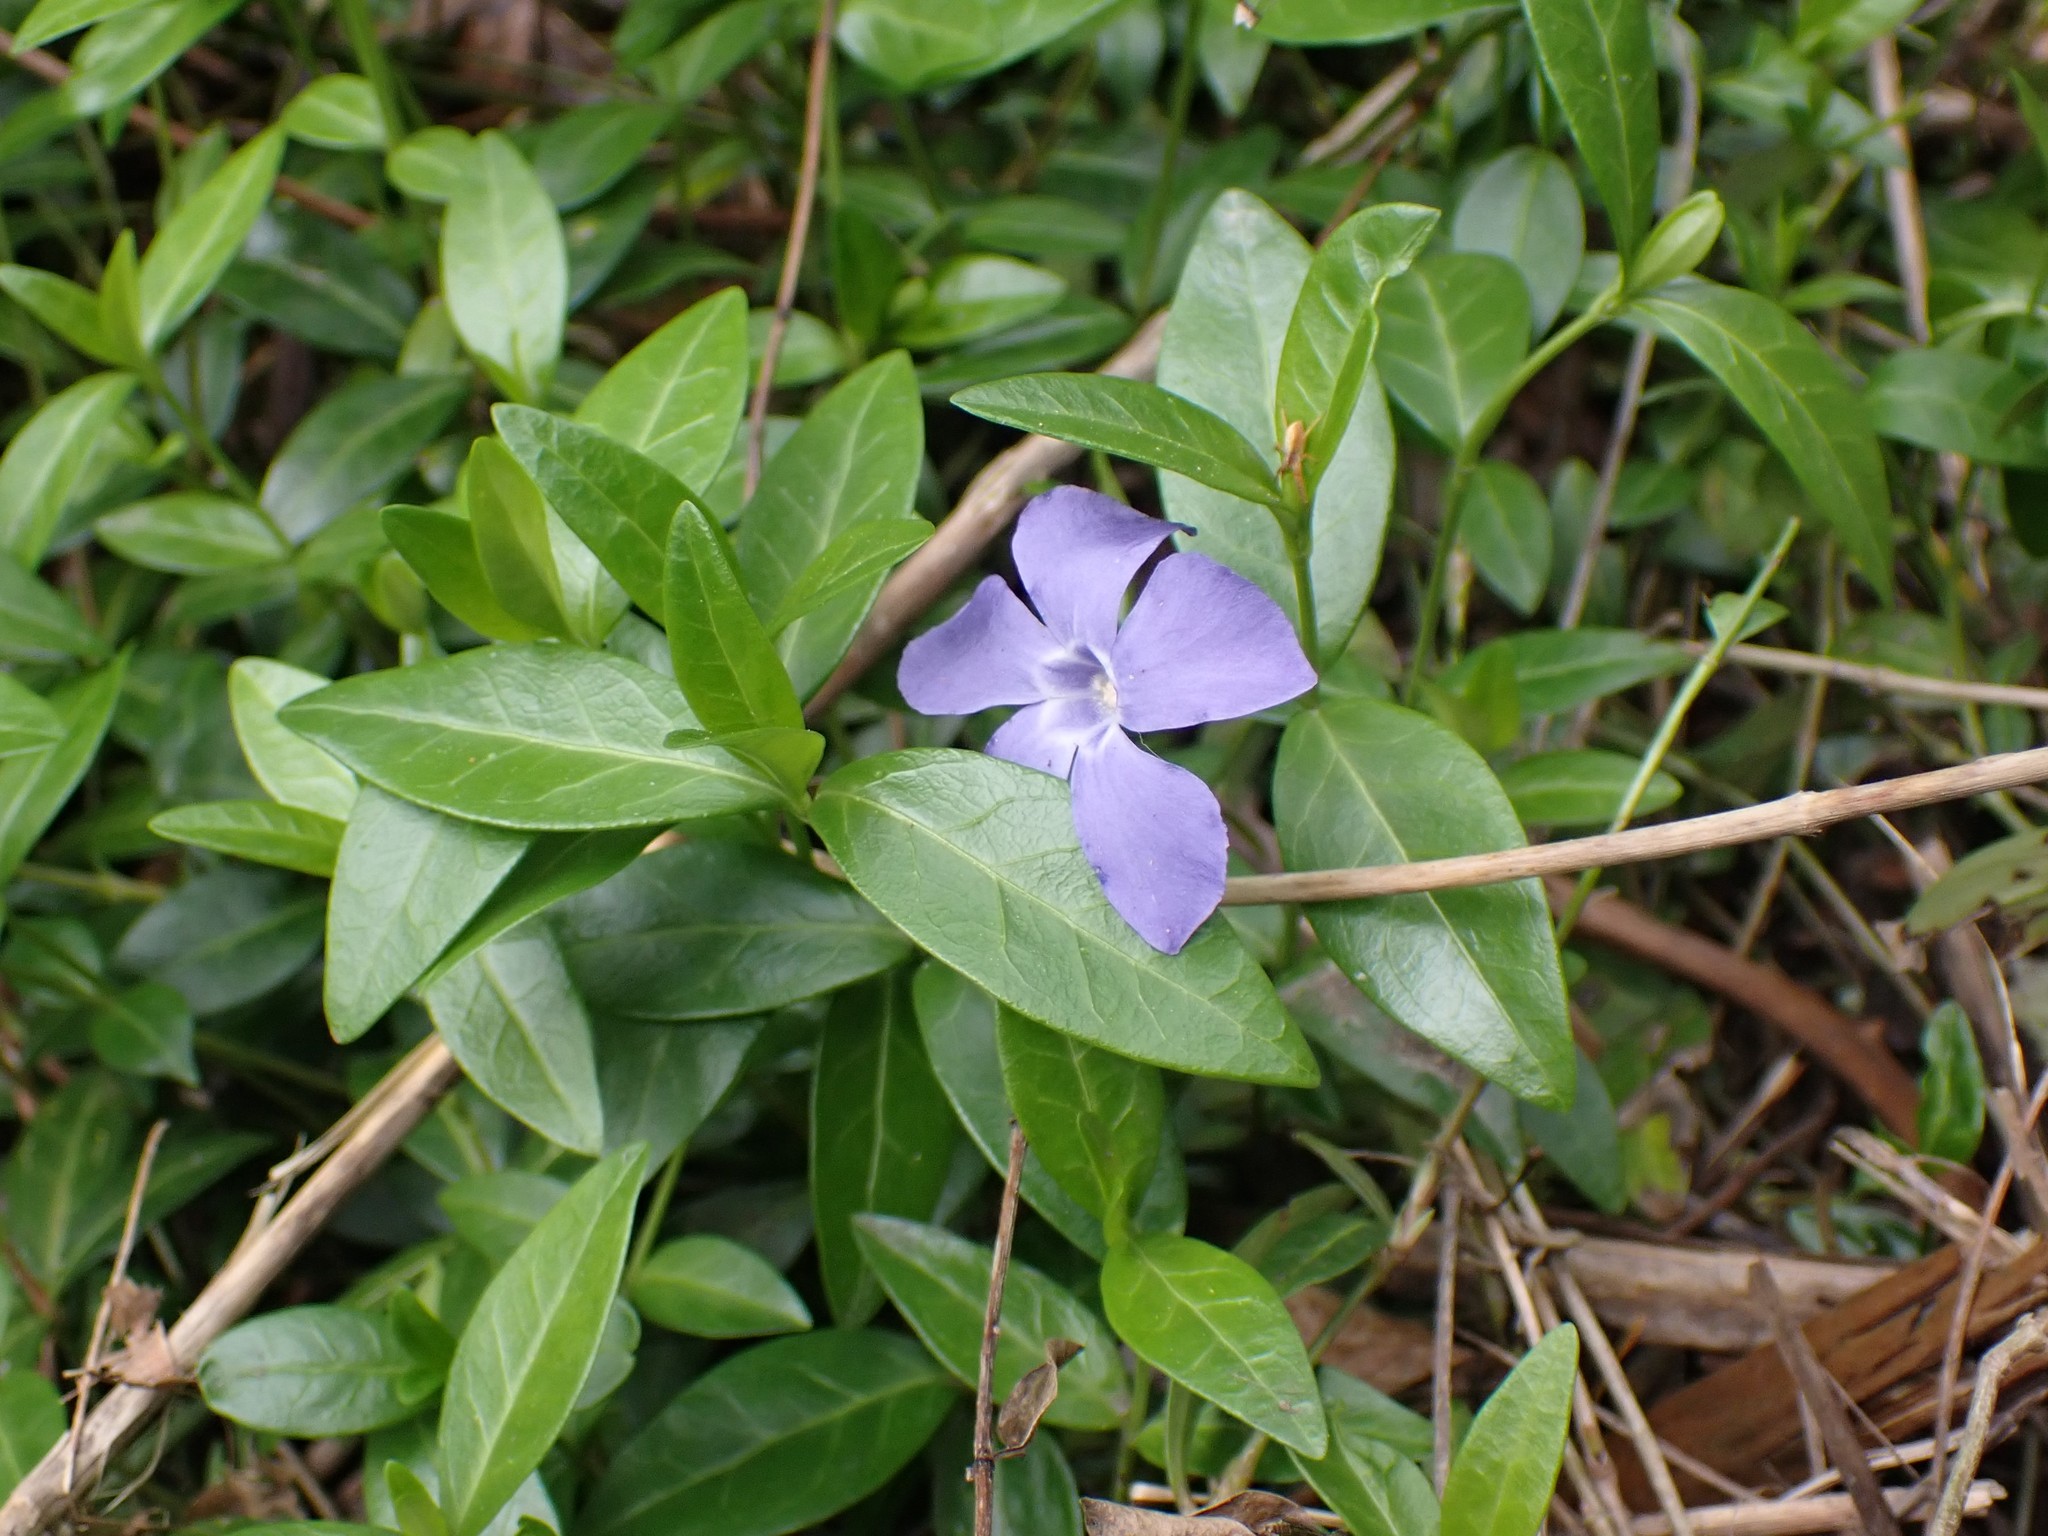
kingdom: Plantae
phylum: Tracheophyta
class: Magnoliopsida
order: Gentianales
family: Apocynaceae
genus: Vinca
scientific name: Vinca minor
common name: Lesser periwinkle
